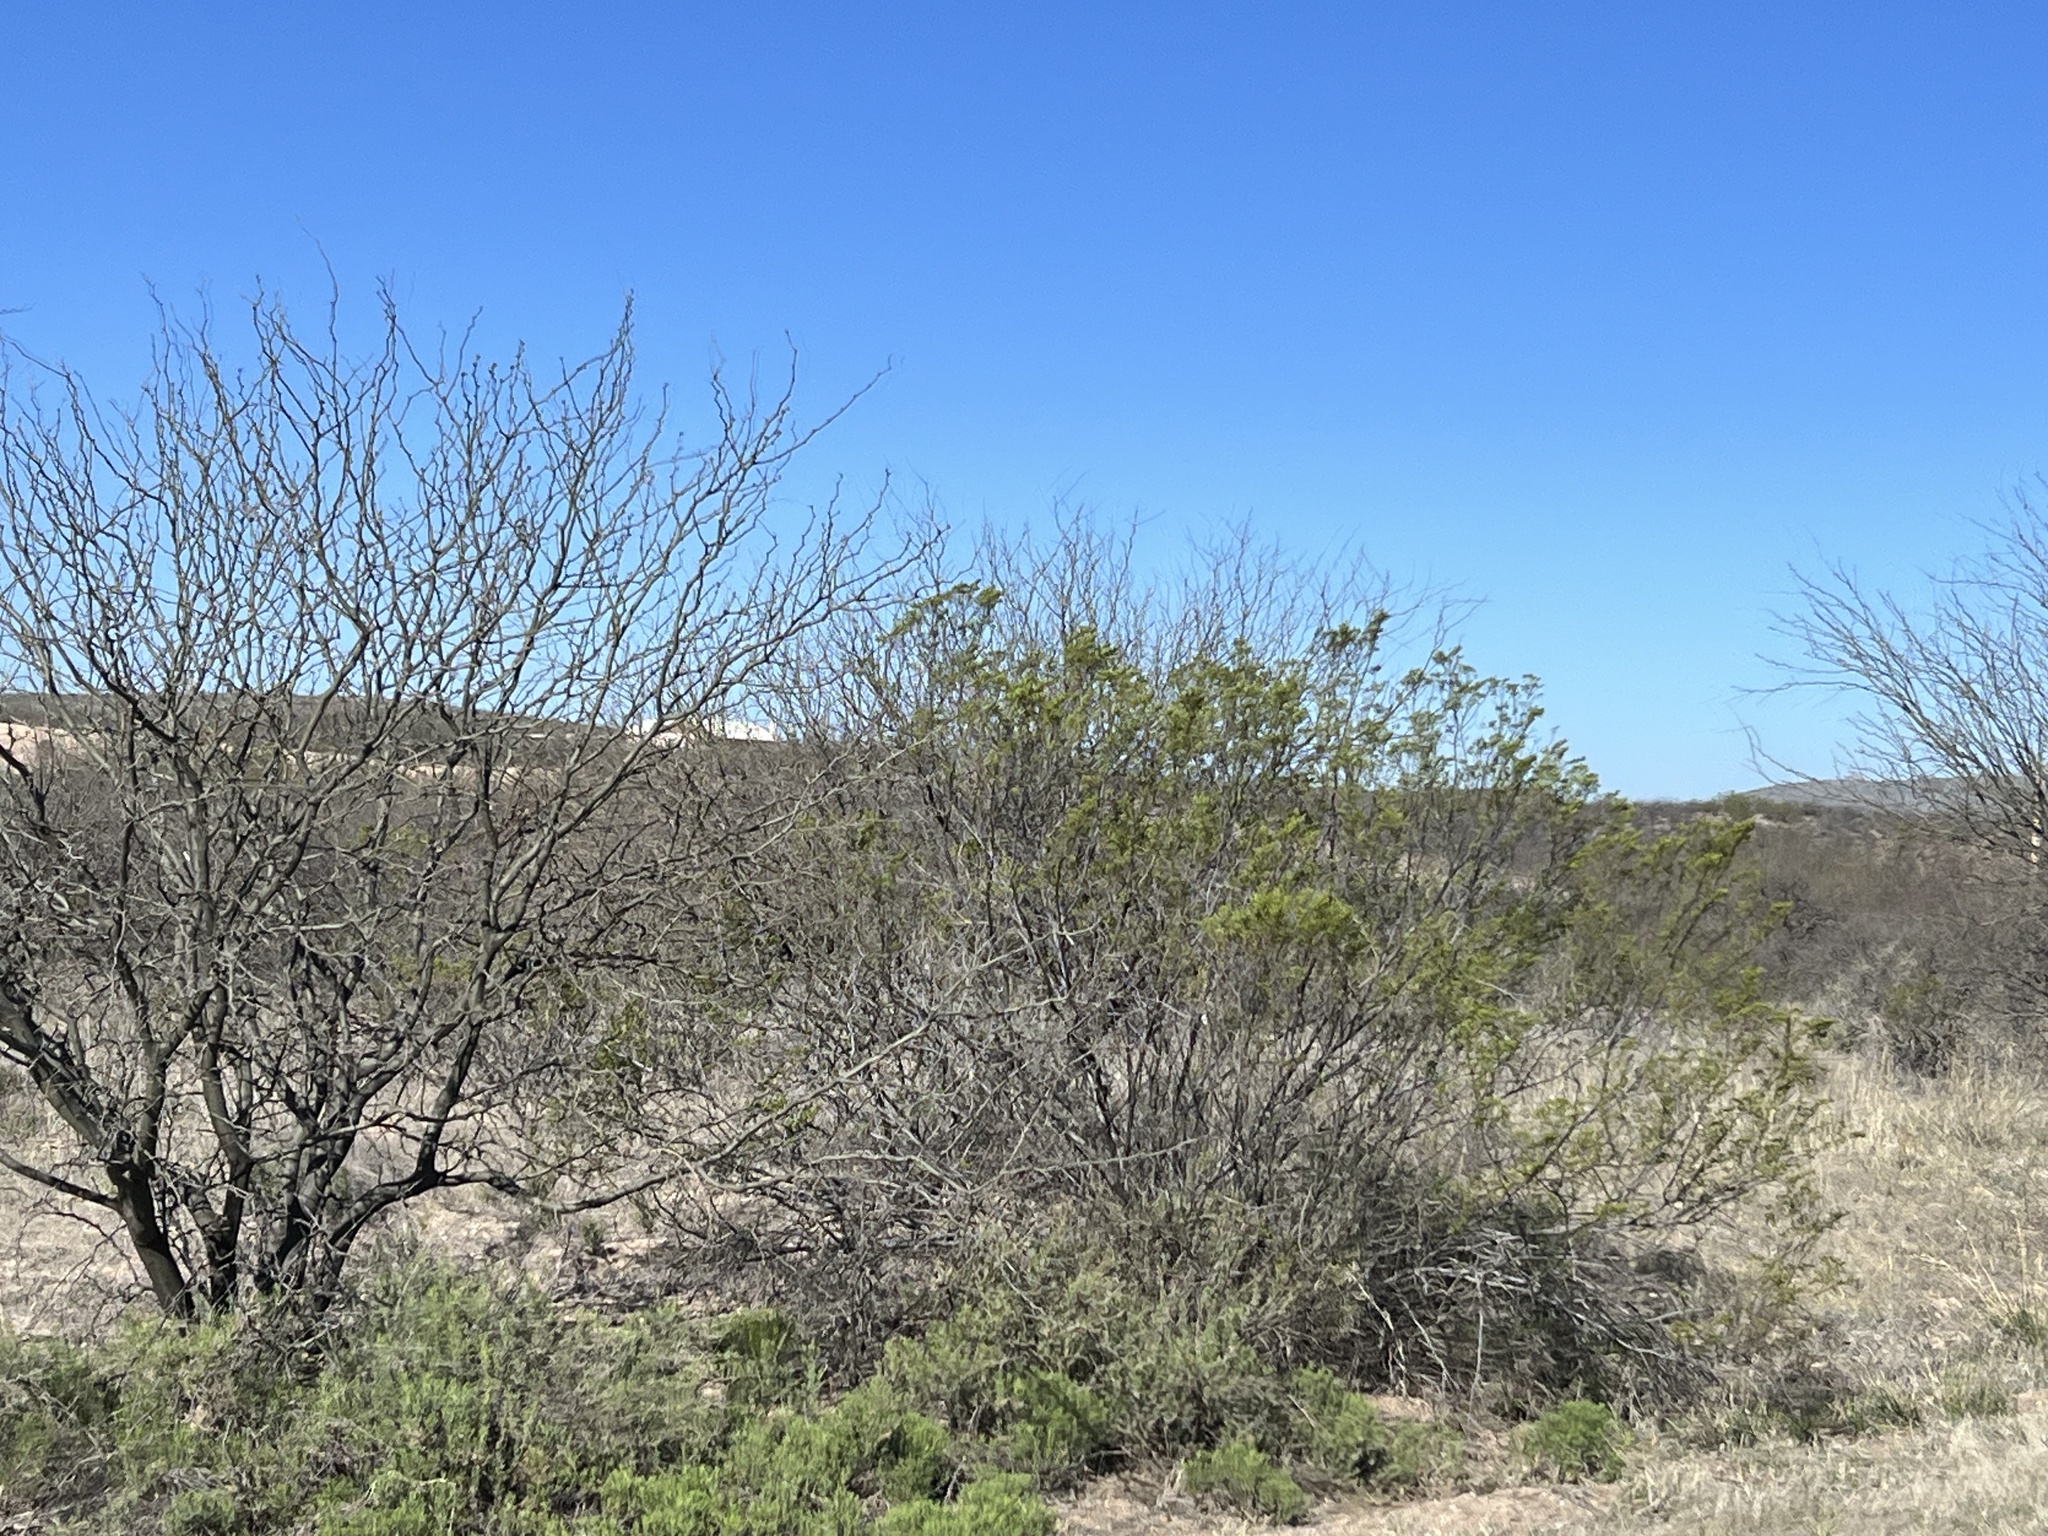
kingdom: Plantae
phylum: Tracheophyta
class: Magnoliopsida
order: Zygophyllales
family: Zygophyllaceae
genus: Larrea
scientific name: Larrea tridentata
